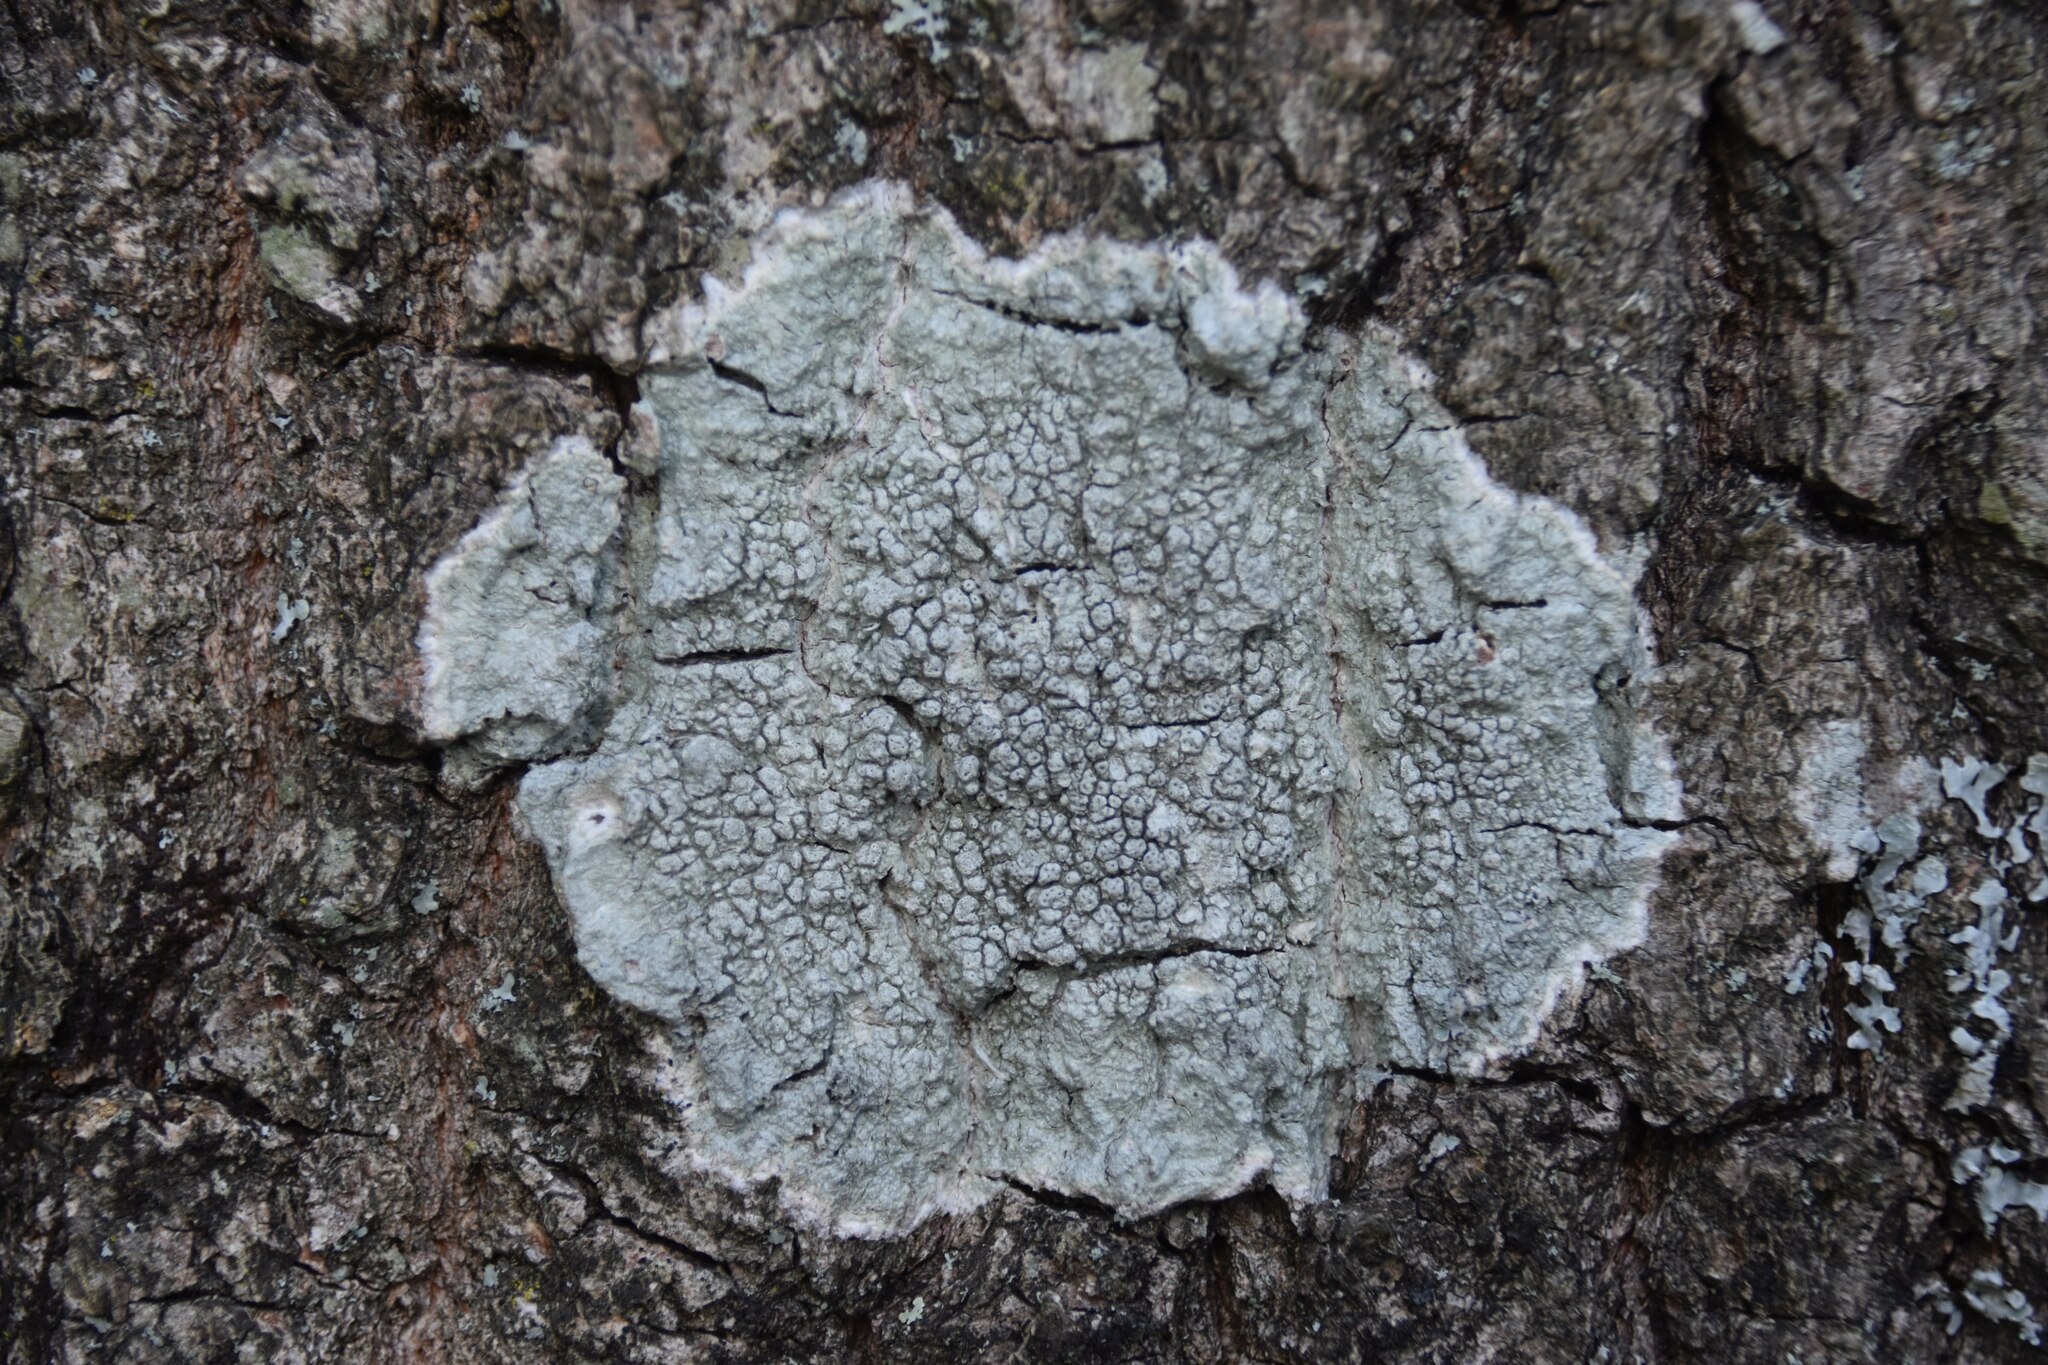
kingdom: Fungi
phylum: Ascomycota
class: Lecanoromycetes
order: Pertusariales
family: Pertusariaceae
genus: Pertusaria
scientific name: Pertusaria pertusa
